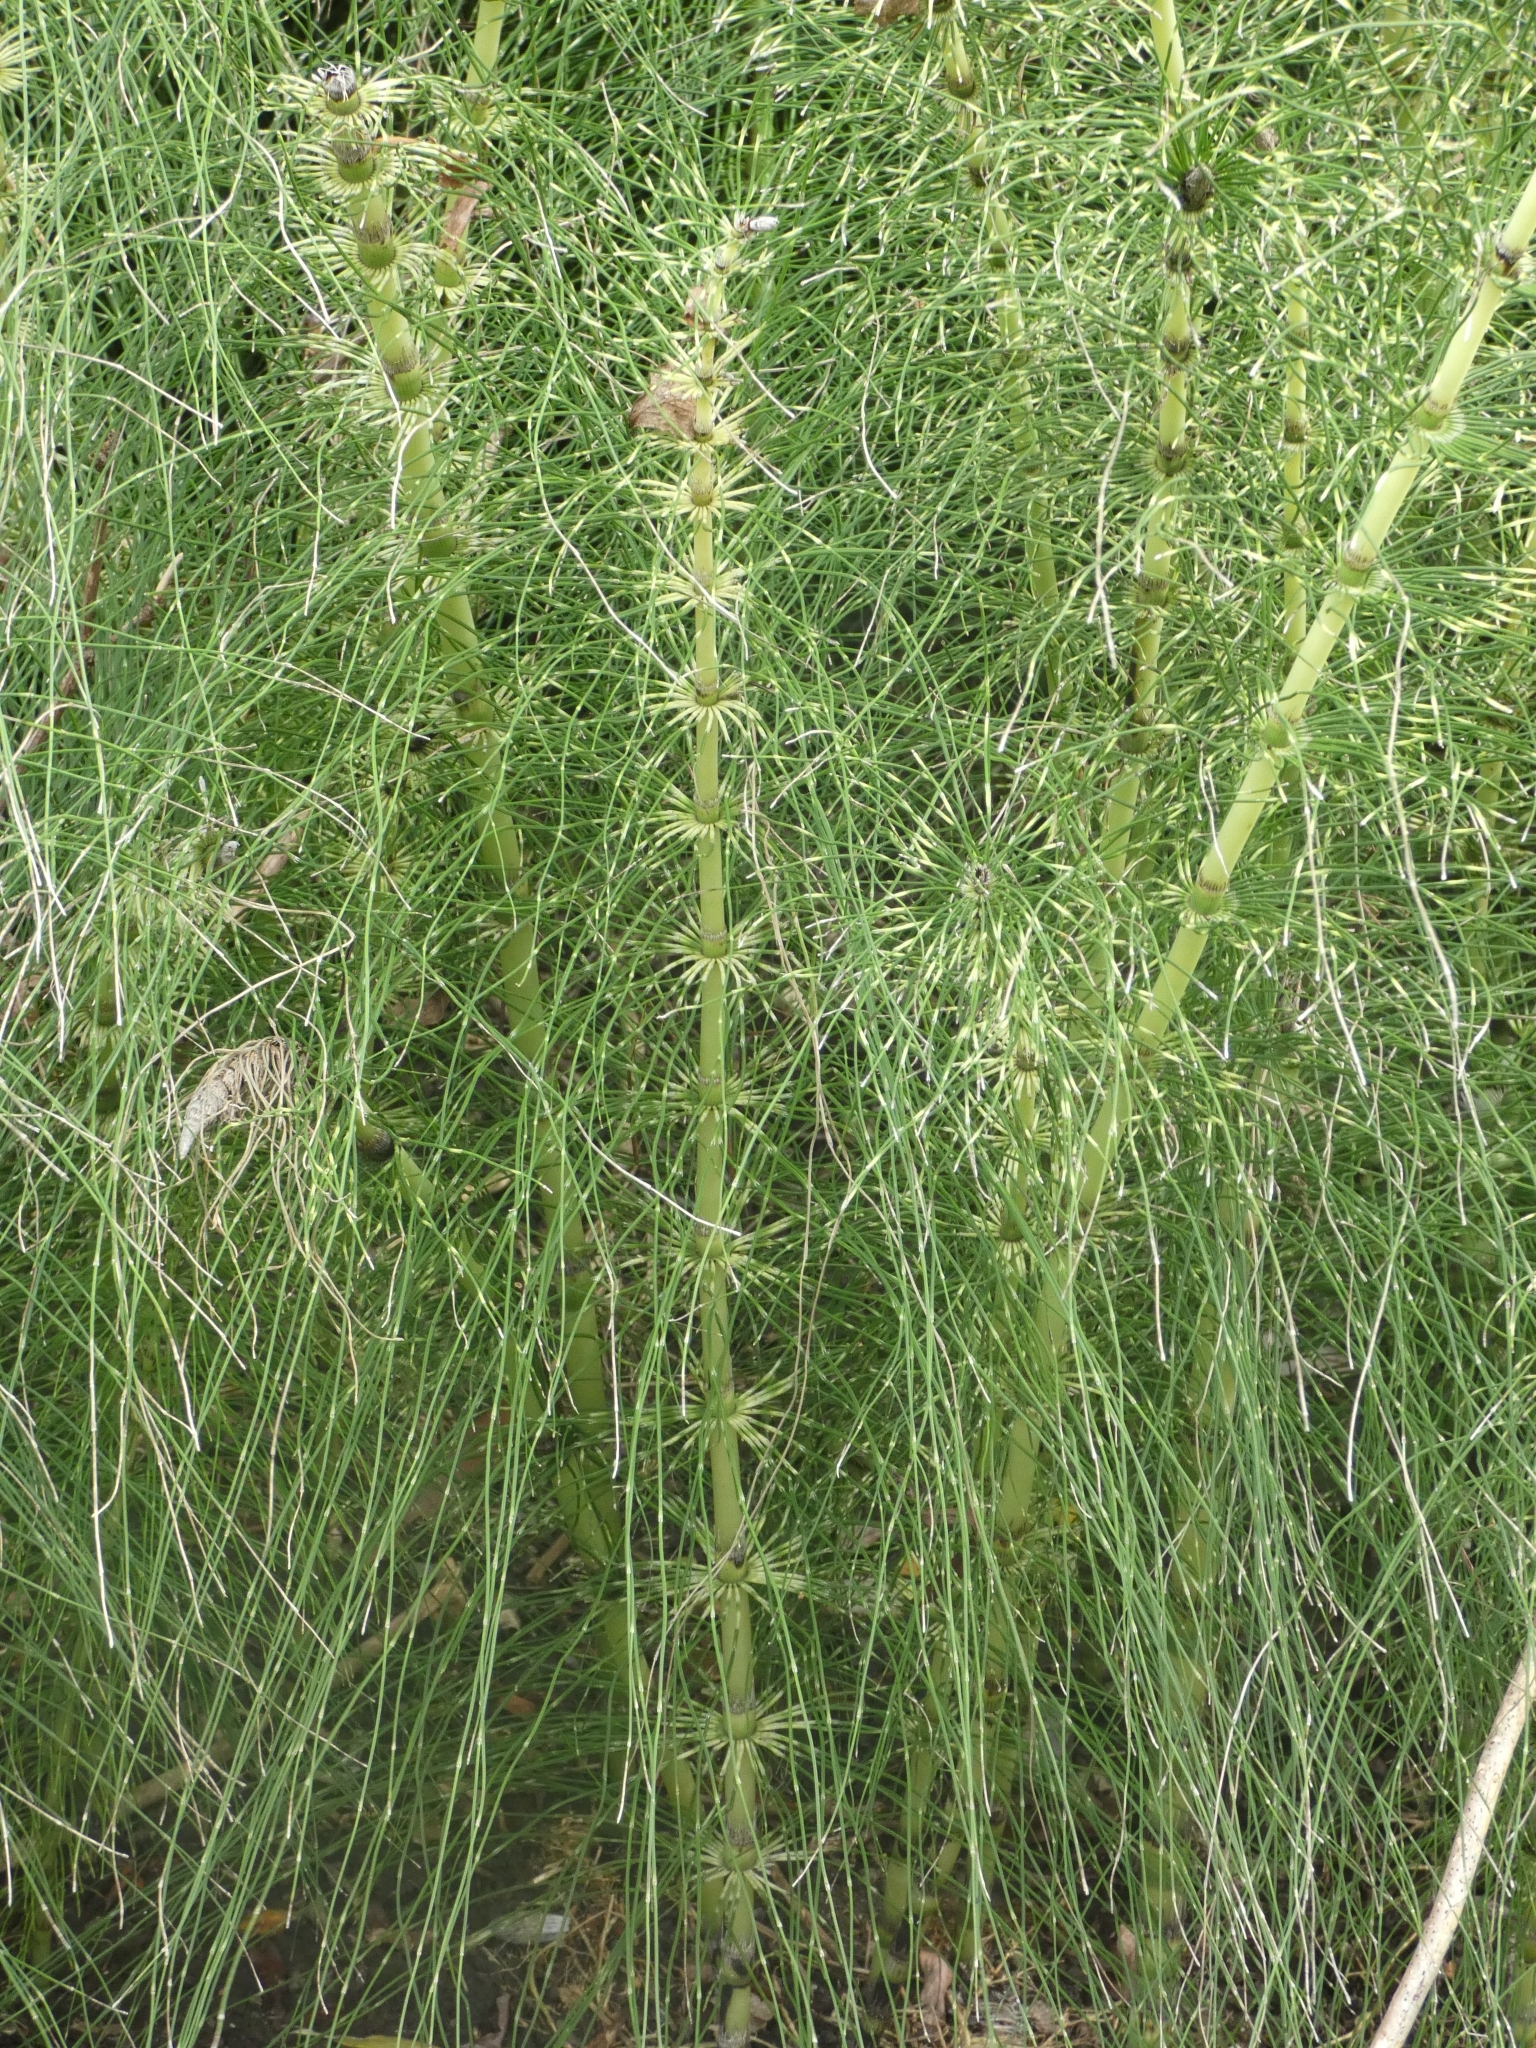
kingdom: Plantae
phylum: Tracheophyta
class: Polypodiopsida
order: Equisetales
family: Equisetaceae
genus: Equisetum
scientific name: Equisetum telmateia
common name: Great horsetail
